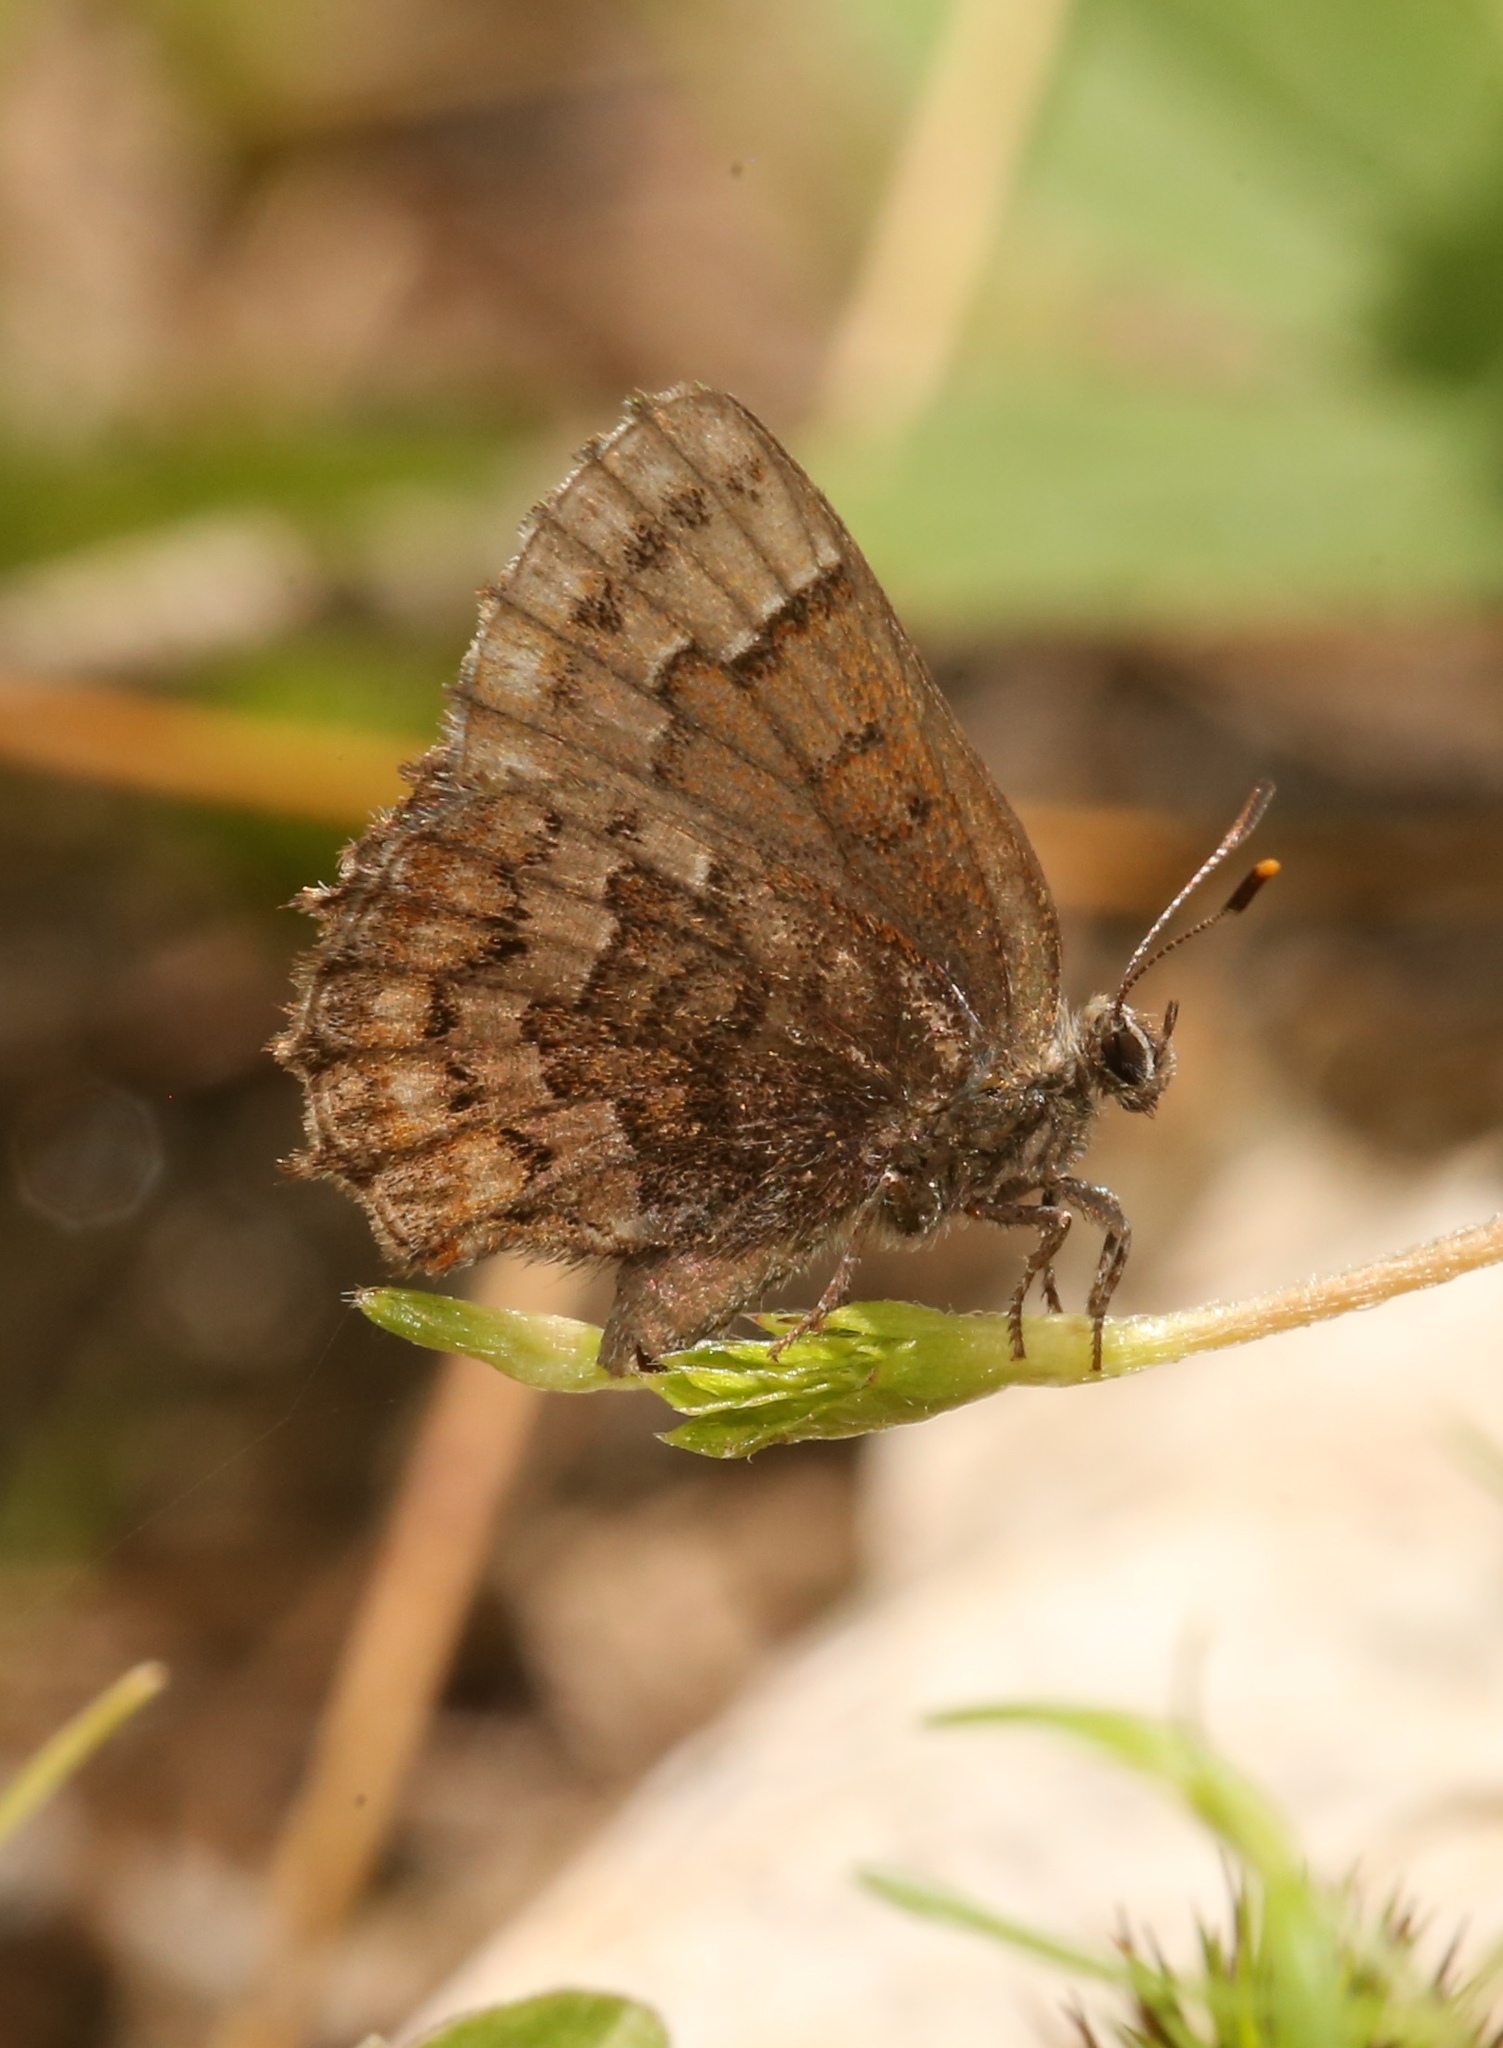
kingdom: Animalia
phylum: Arthropoda
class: Insecta
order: Lepidoptera
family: Lycaenidae
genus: Incisalia
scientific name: Incisalia niphon
